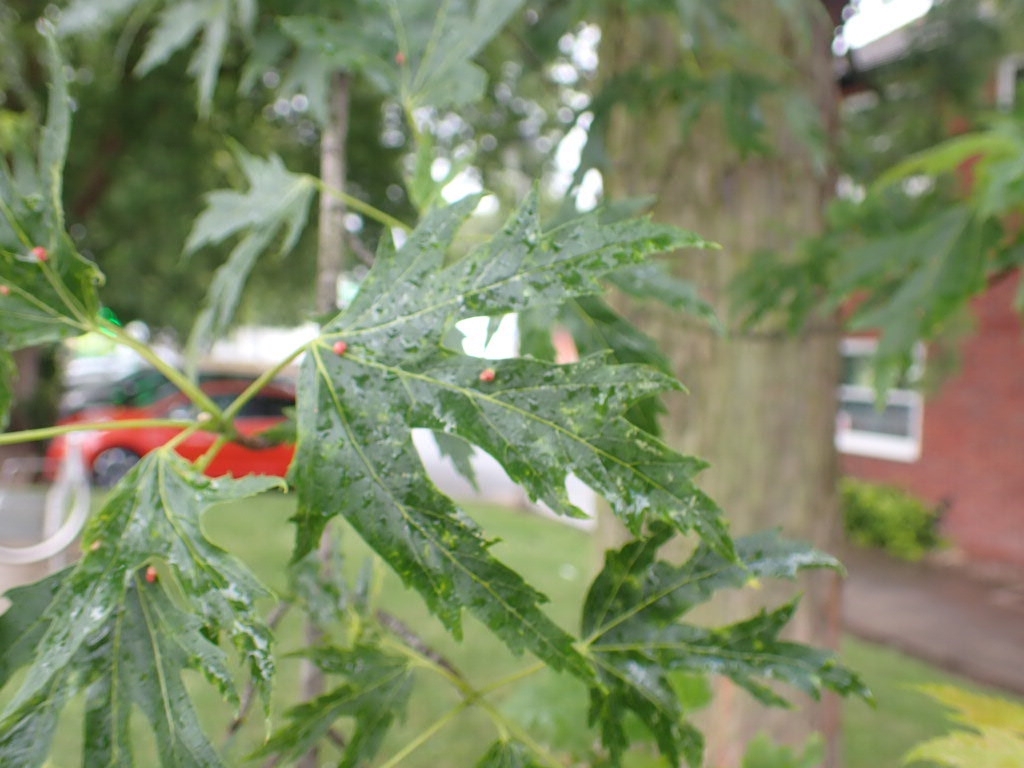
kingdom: Animalia
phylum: Arthropoda
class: Arachnida
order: Trombidiformes
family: Eriophyidae
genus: Vasates
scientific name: Vasates quadripedes
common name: Maple bladder gall mite
